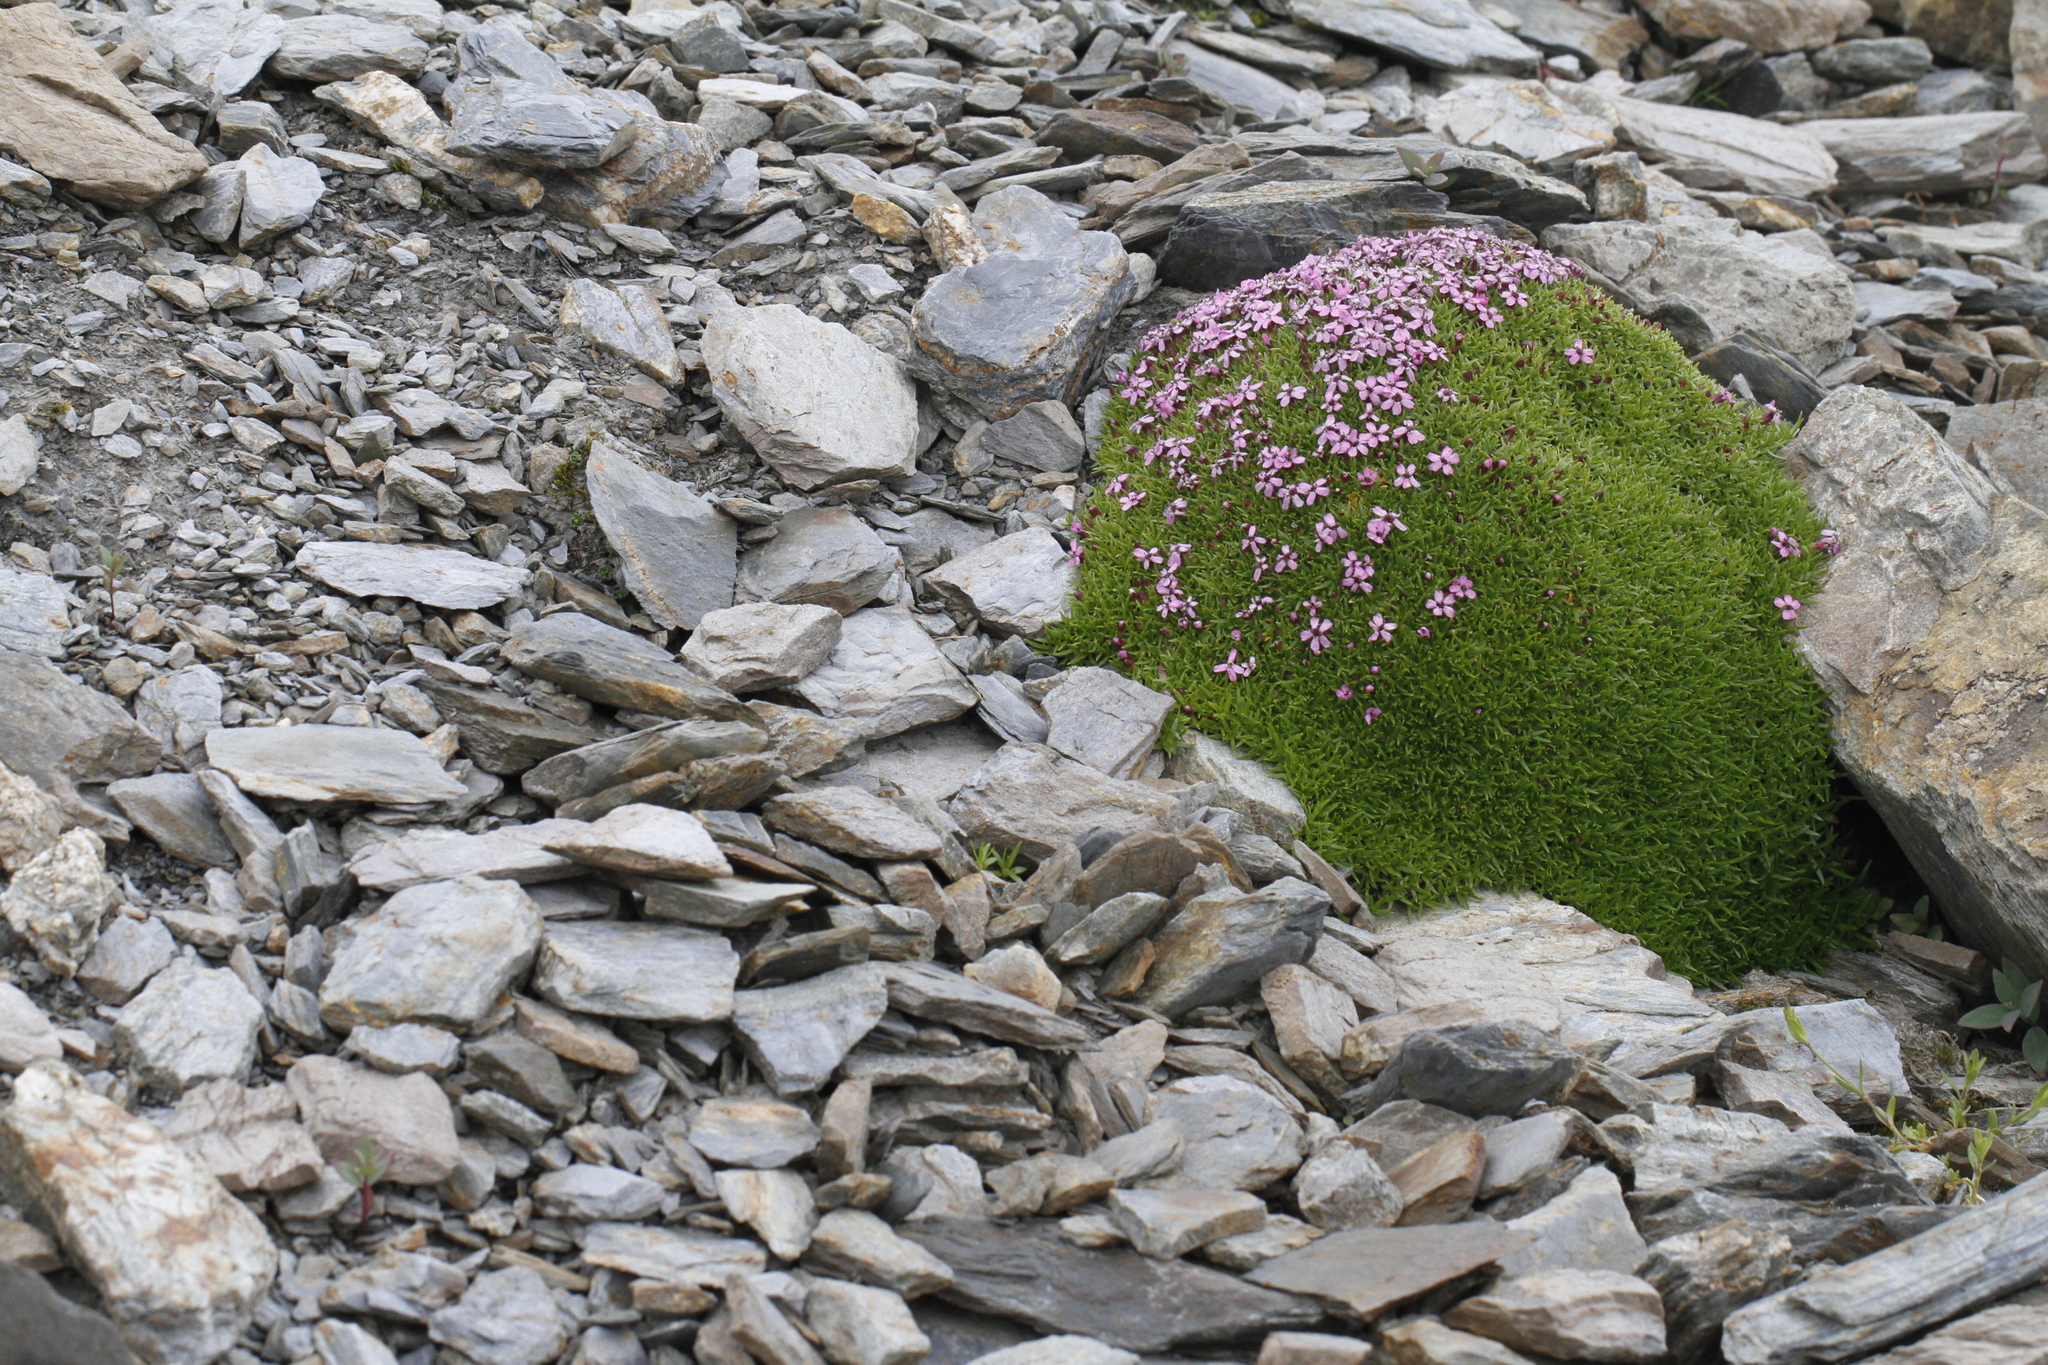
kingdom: Plantae
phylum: Tracheophyta
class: Magnoliopsida
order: Caryophyllales
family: Caryophyllaceae
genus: Silene
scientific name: Silene acaulis
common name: Moss campion
